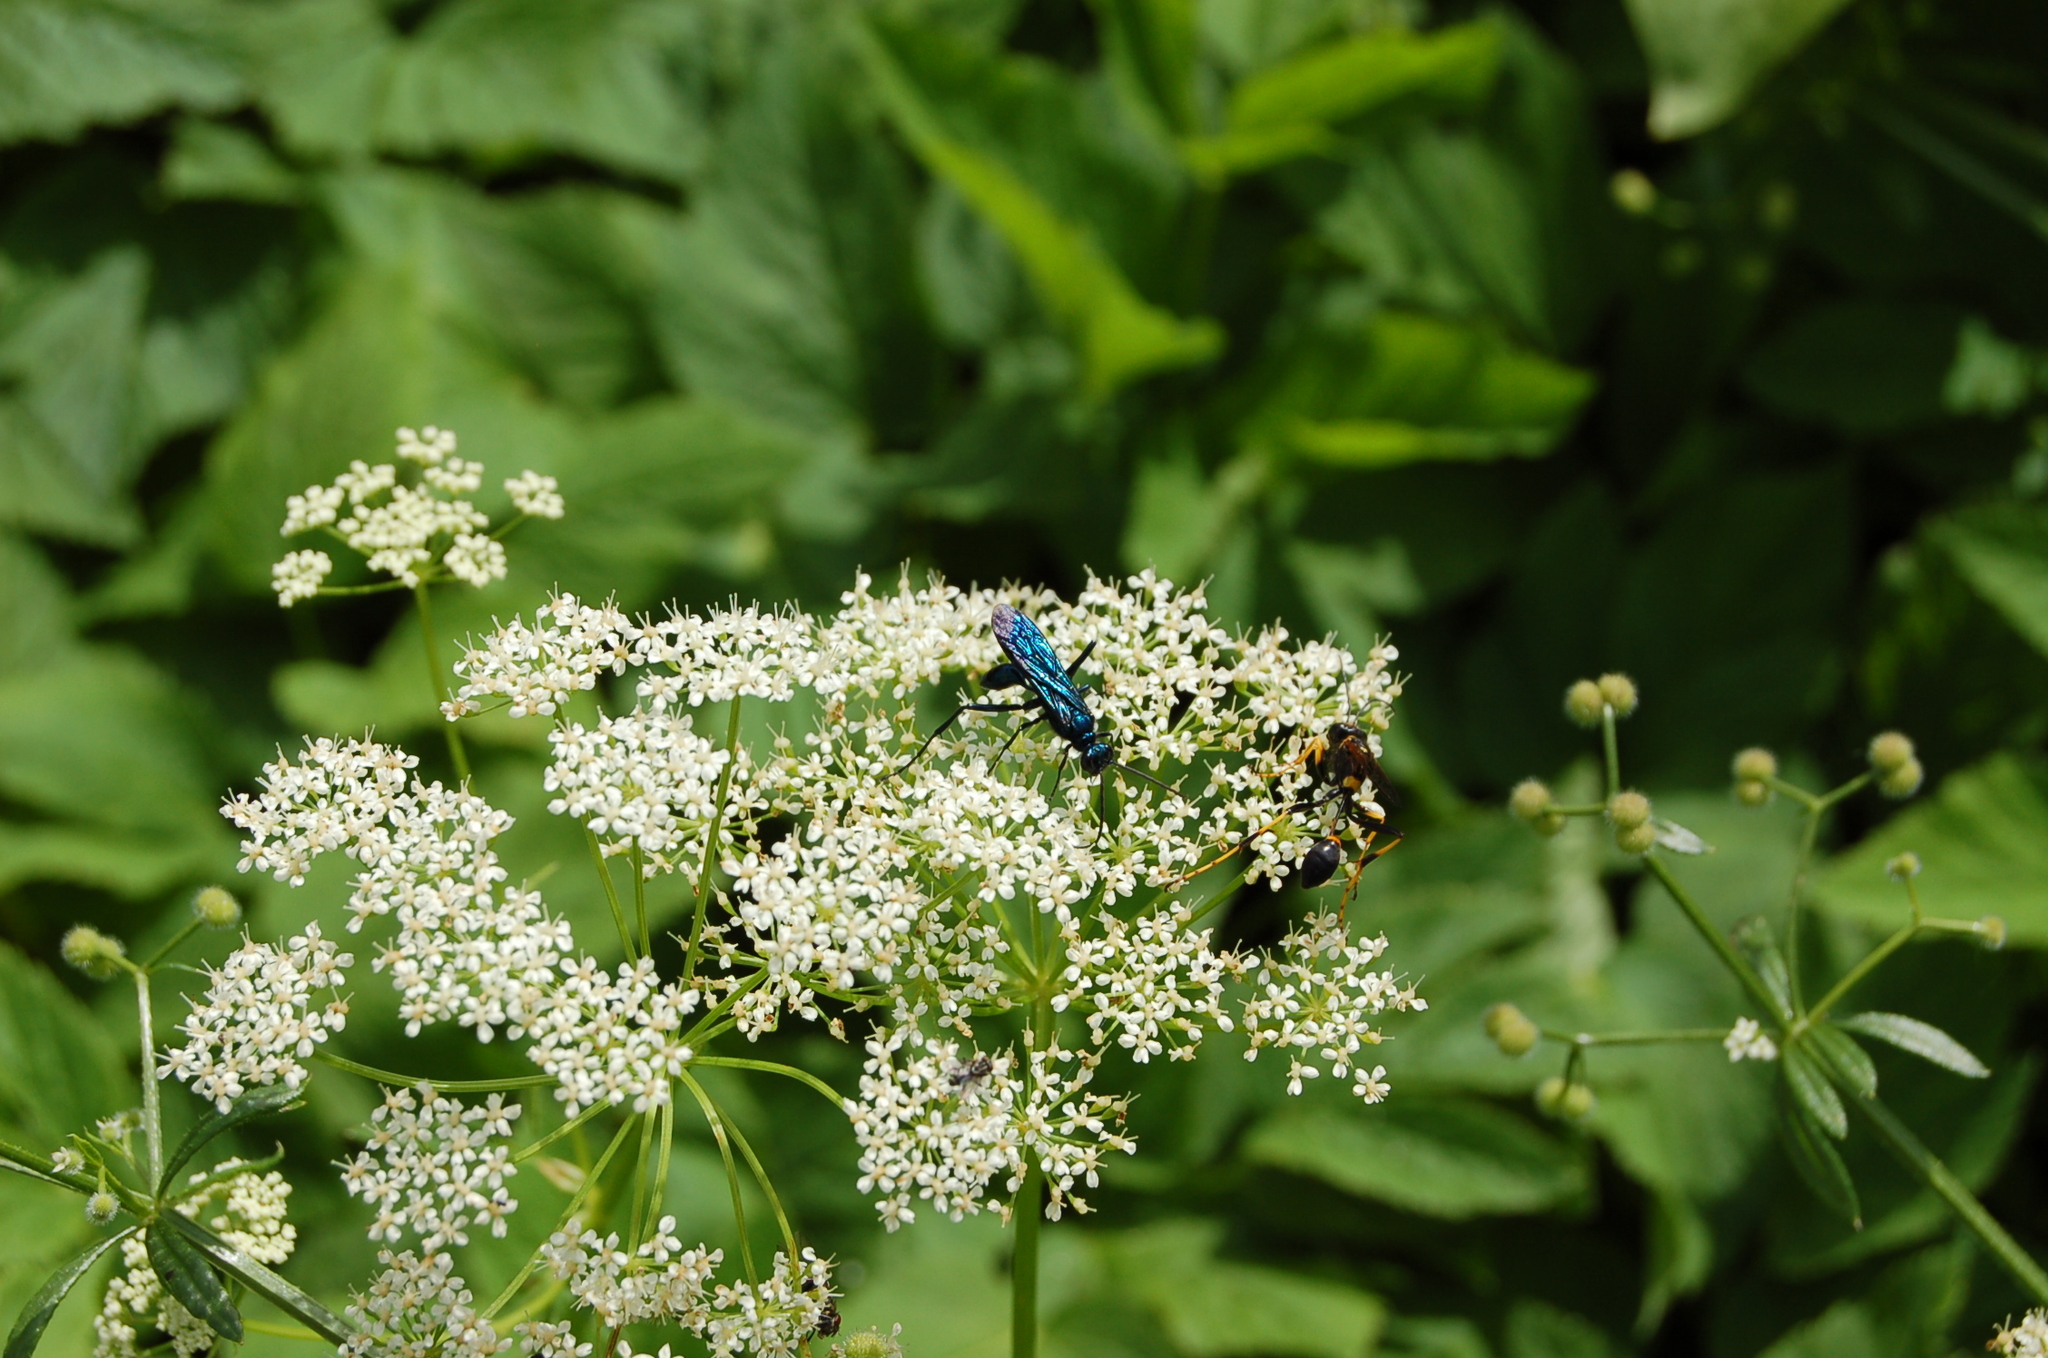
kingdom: Animalia
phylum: Arthropoda
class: Insecta
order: Hymenoptera
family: Sphecidae
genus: Chalybion
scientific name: Chalybion californicum
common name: Mud dauber
